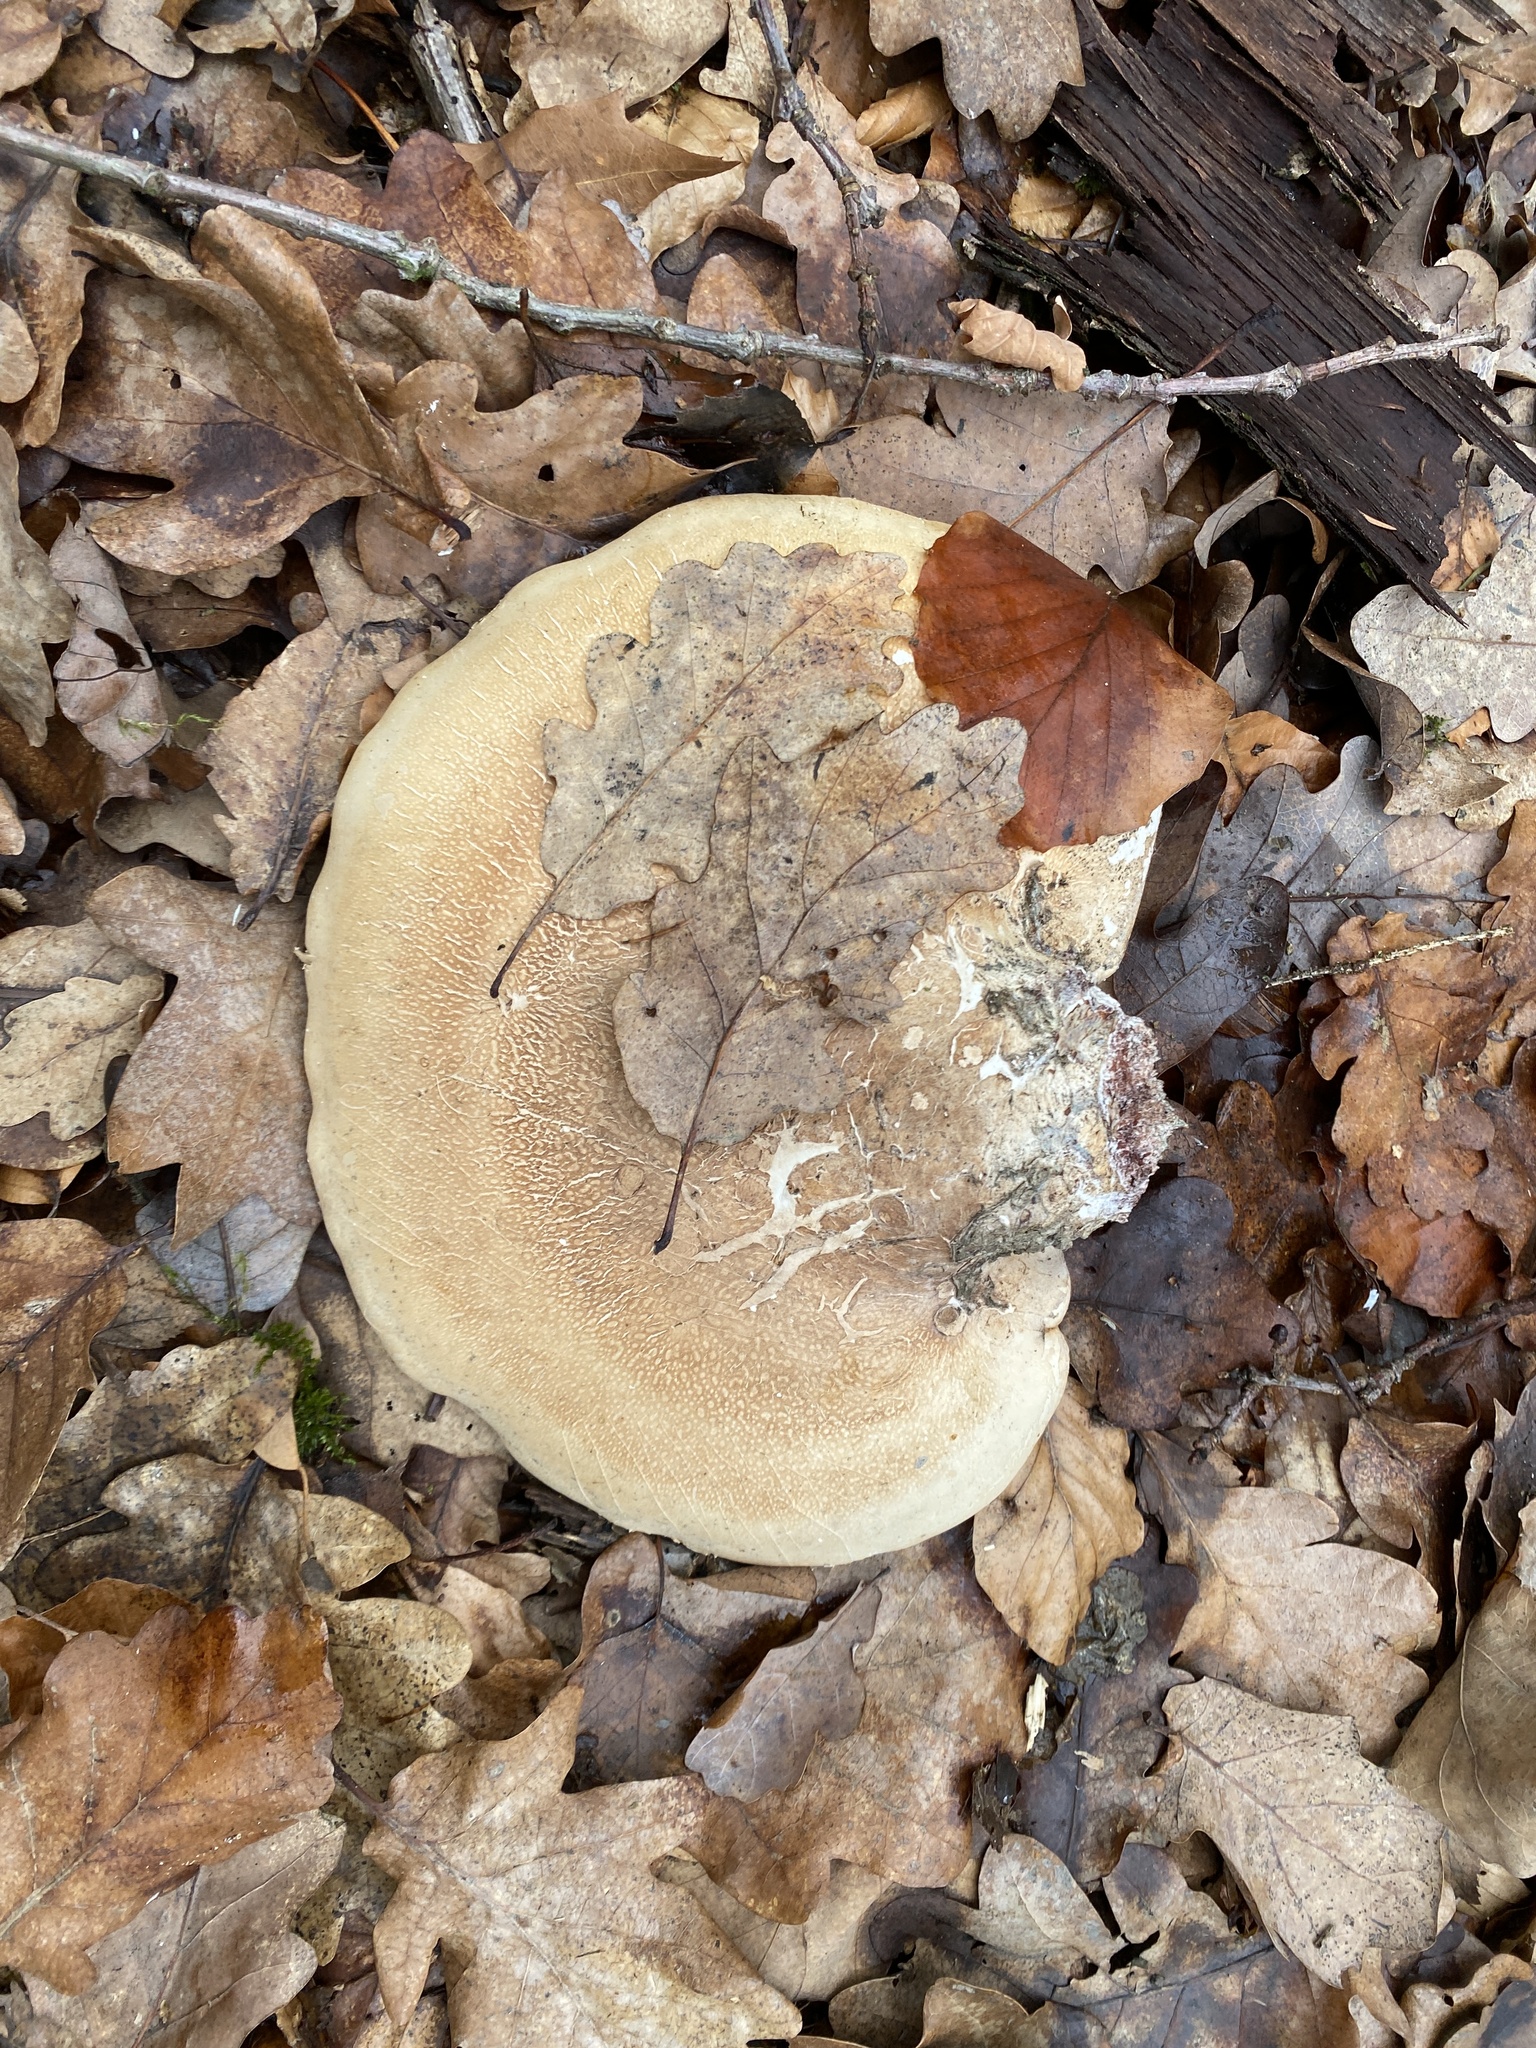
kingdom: Fungi
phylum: Basidiomycota
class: Agaricomycetes
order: Polyporales
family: Fomitopsidaceae
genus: Fomitopsis
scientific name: Fomitopsis betulina
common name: Birch polypore
